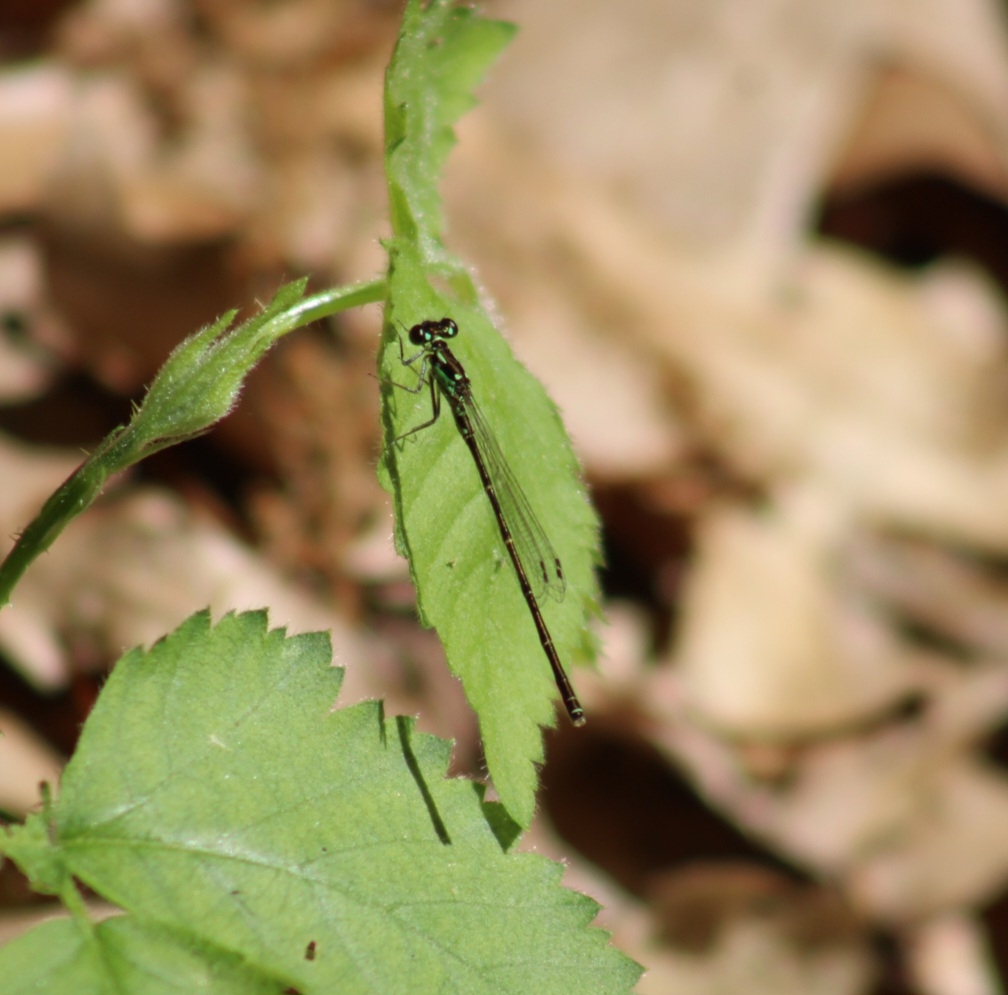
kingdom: Animalia
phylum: Arthropoda
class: Insecta
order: Odonata
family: Coenagrionidae
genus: Ischnura
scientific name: Ischnura posita
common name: Fragile forktail
